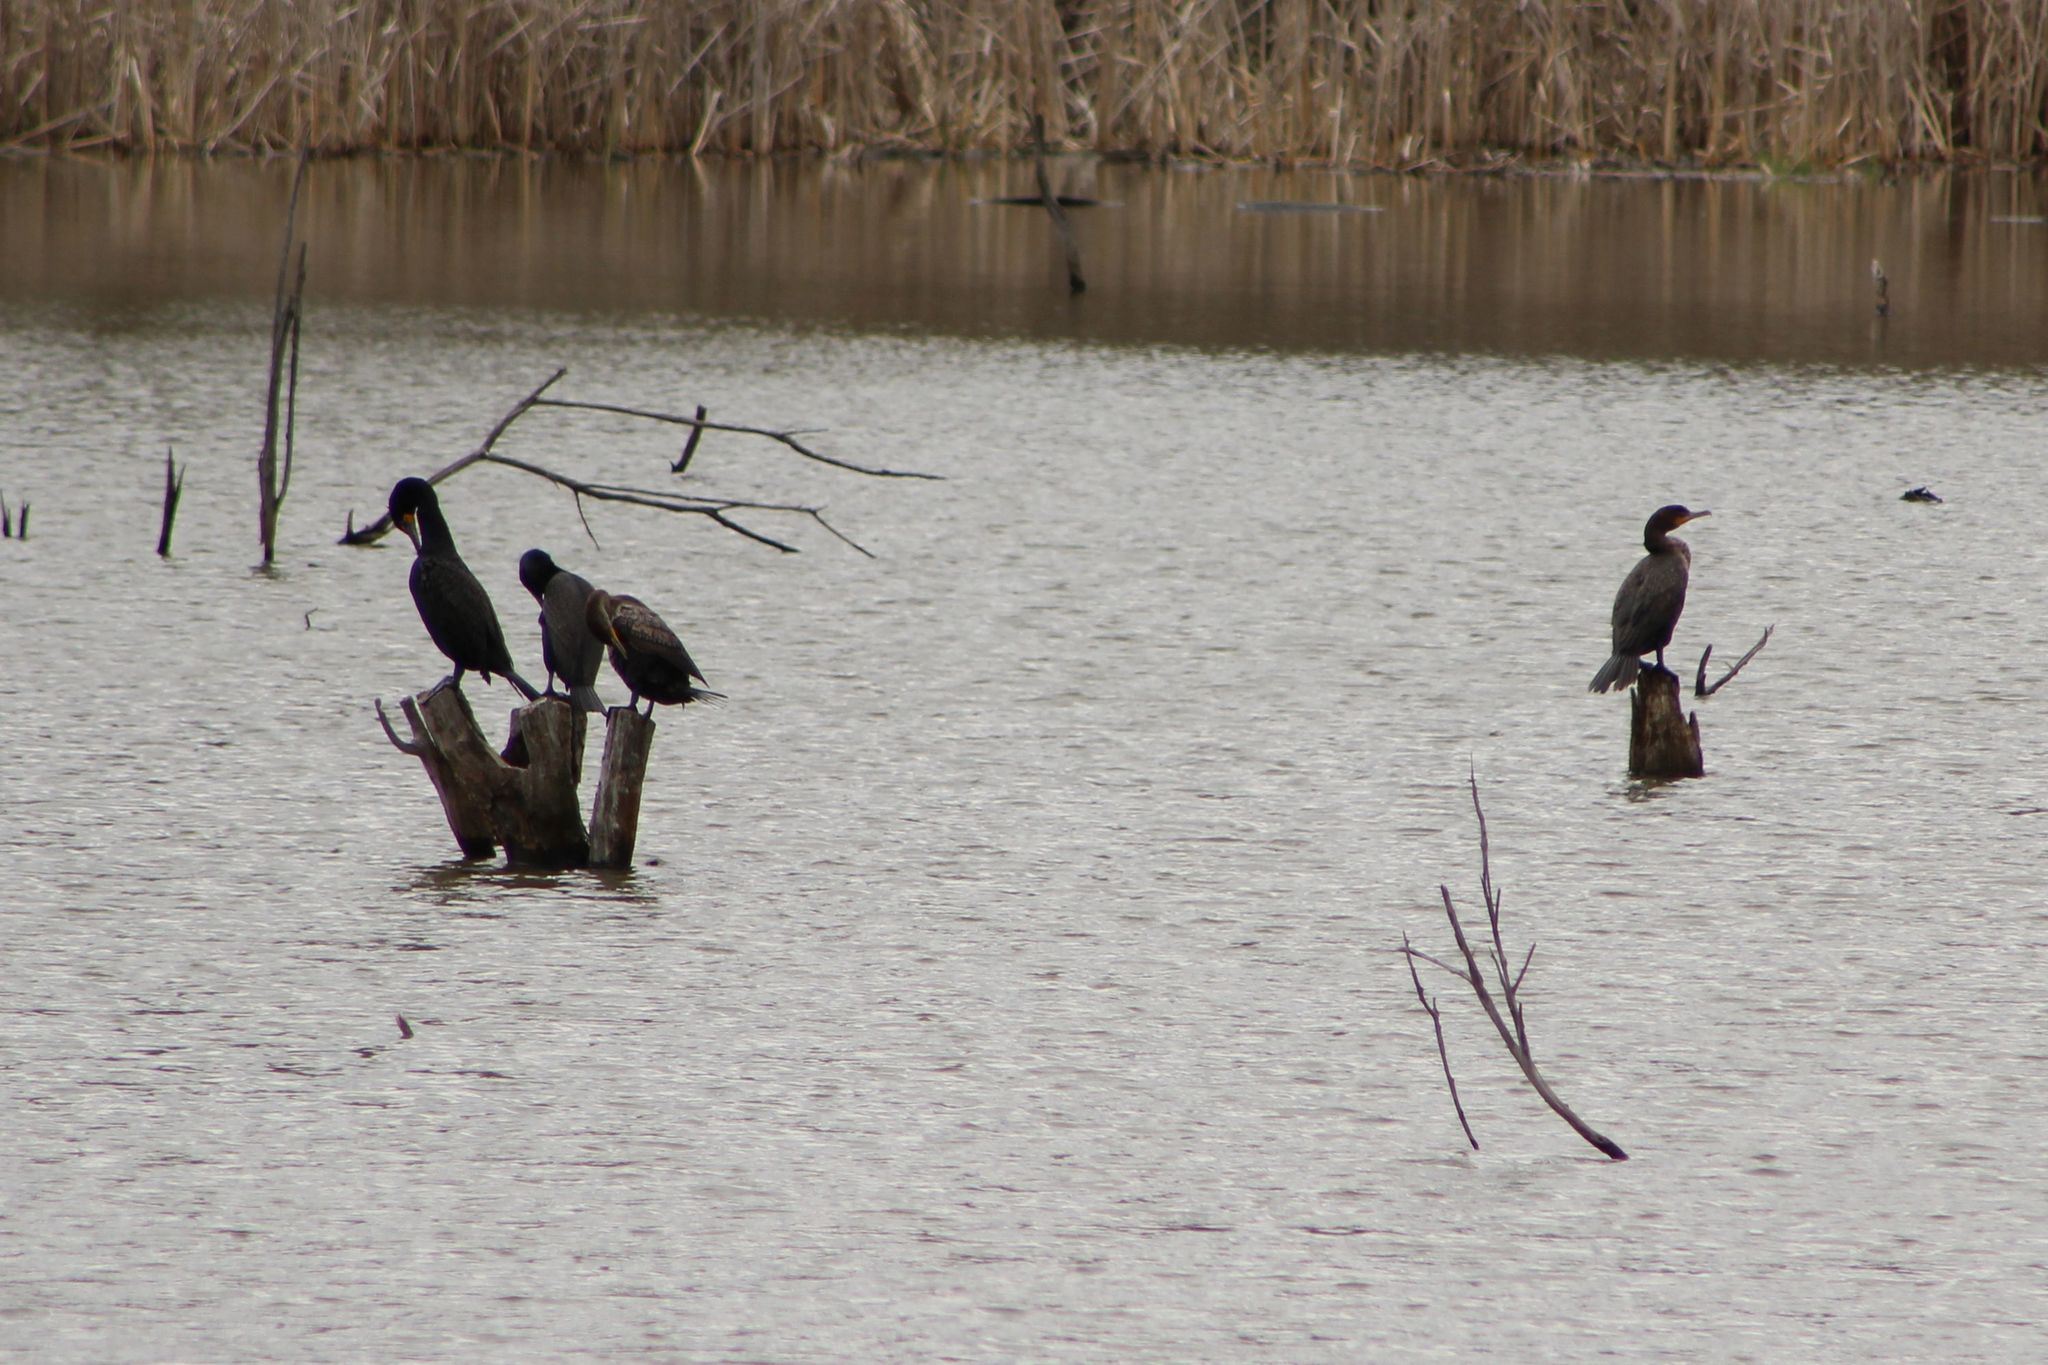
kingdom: Animalia
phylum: Chordata
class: Aves
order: Suliformes
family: Phalacrocoracidae
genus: Phalacrocorax
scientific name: Phalacrocorax auritus
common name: Double-crested cormorant
